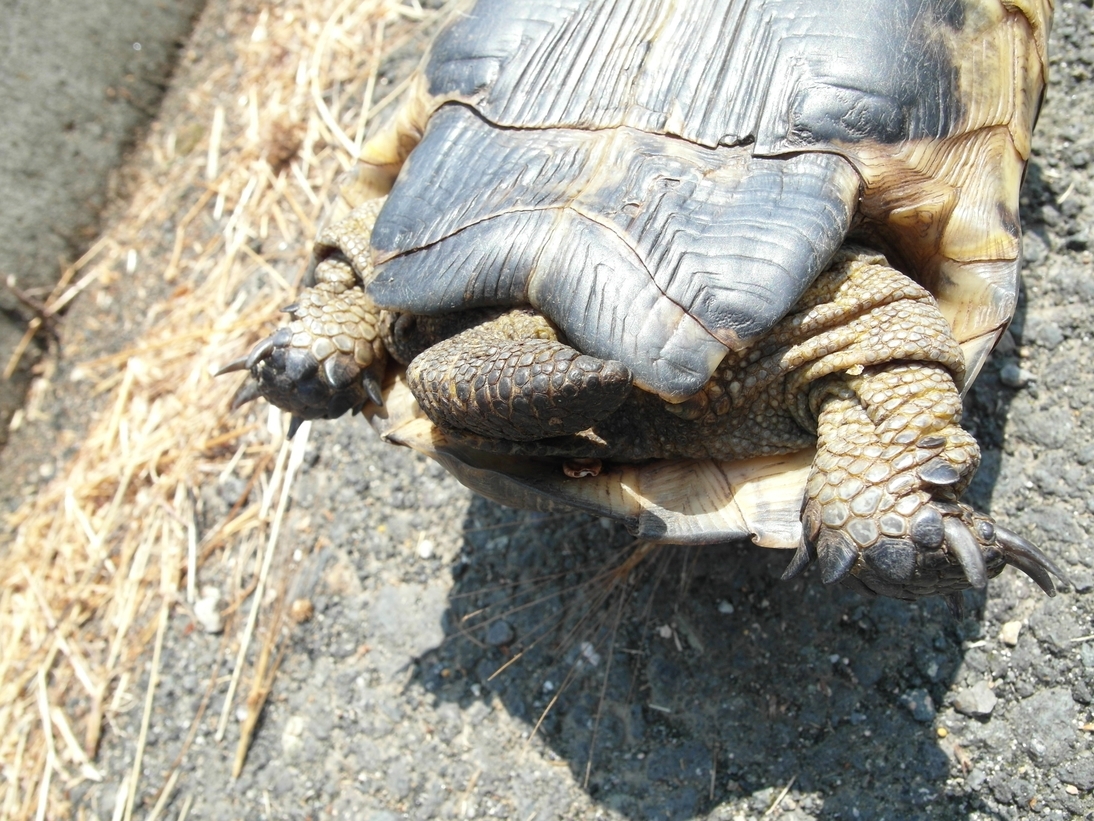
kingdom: Animalia
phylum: Chordata
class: Testudines
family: Testudinidae
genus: Testudo
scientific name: Testudo graeca
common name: Common tortoise
